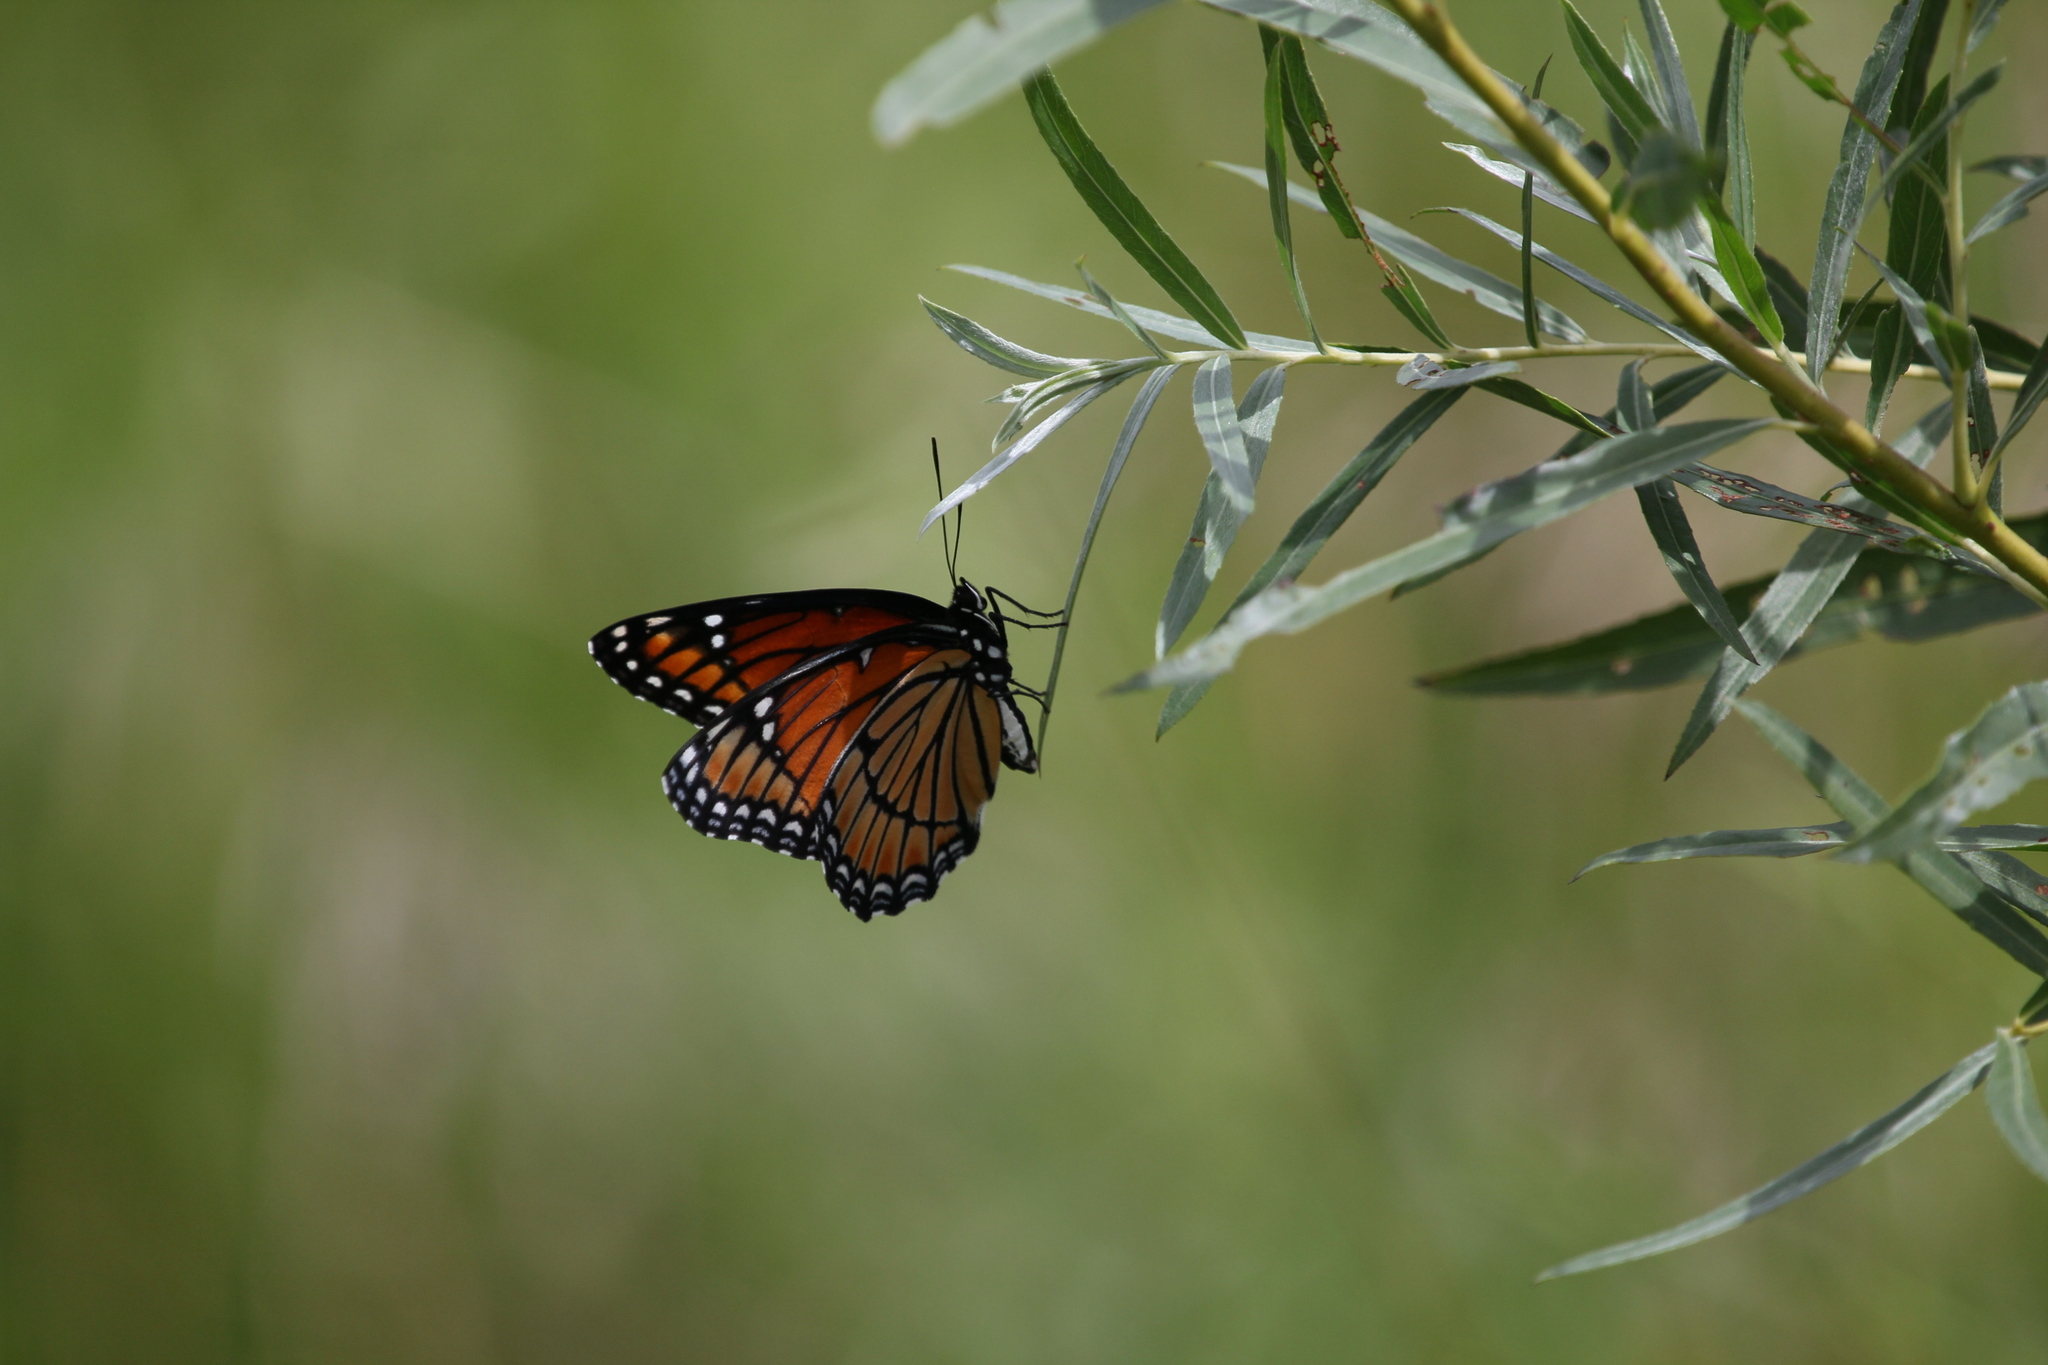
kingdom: Animalia
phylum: Arthropoda
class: Insecta
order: Lepidoptera
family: Nymphalidae
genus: Limenitis
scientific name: Limenitis archippus
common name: Viceroy
